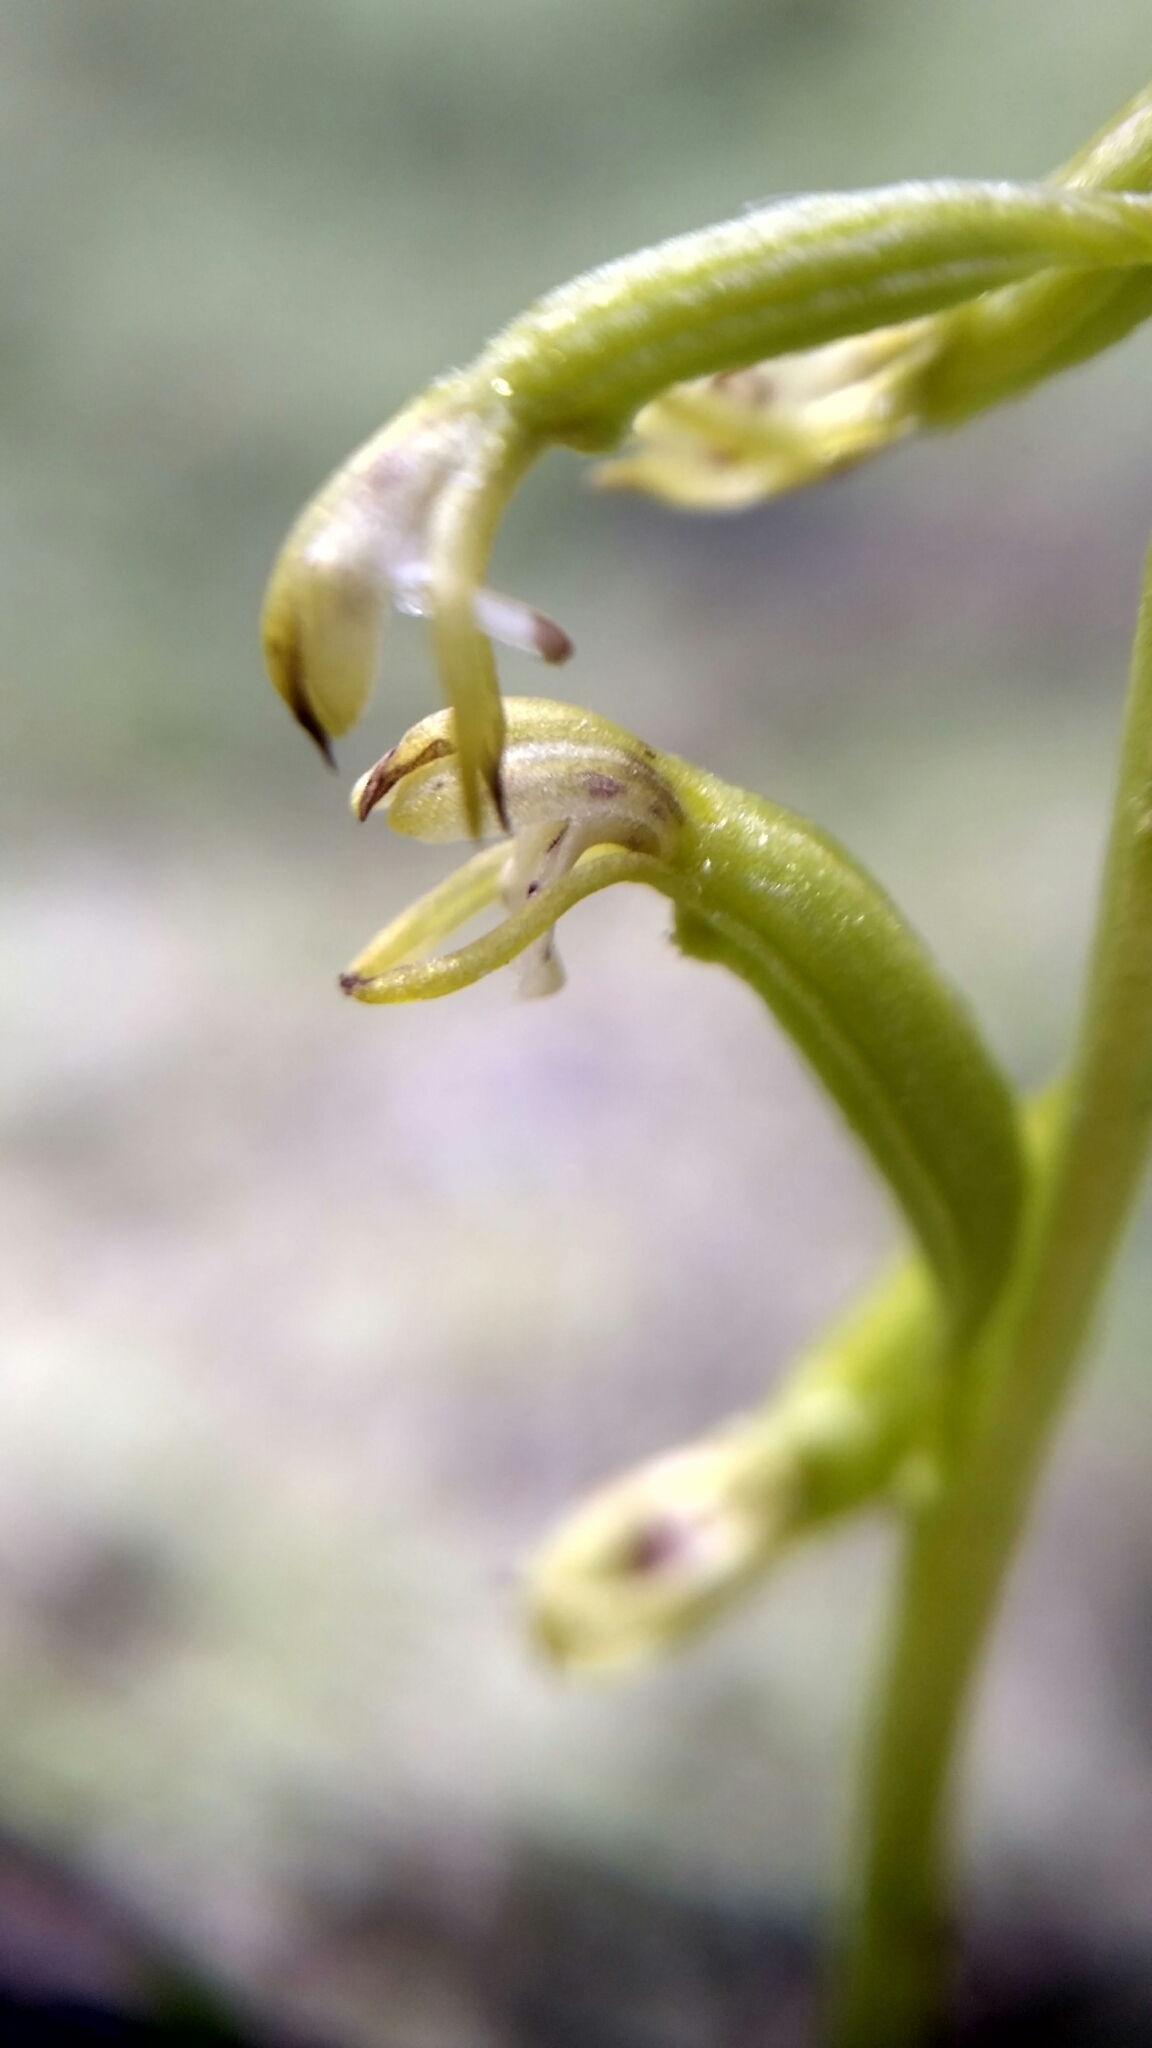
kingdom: Plantae
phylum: Tracheophyta
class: Liliopsida
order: Asparagales
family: Orchidaceae
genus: Corallorhiza
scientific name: Corallorhiza trifida
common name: Yellow coralroot
